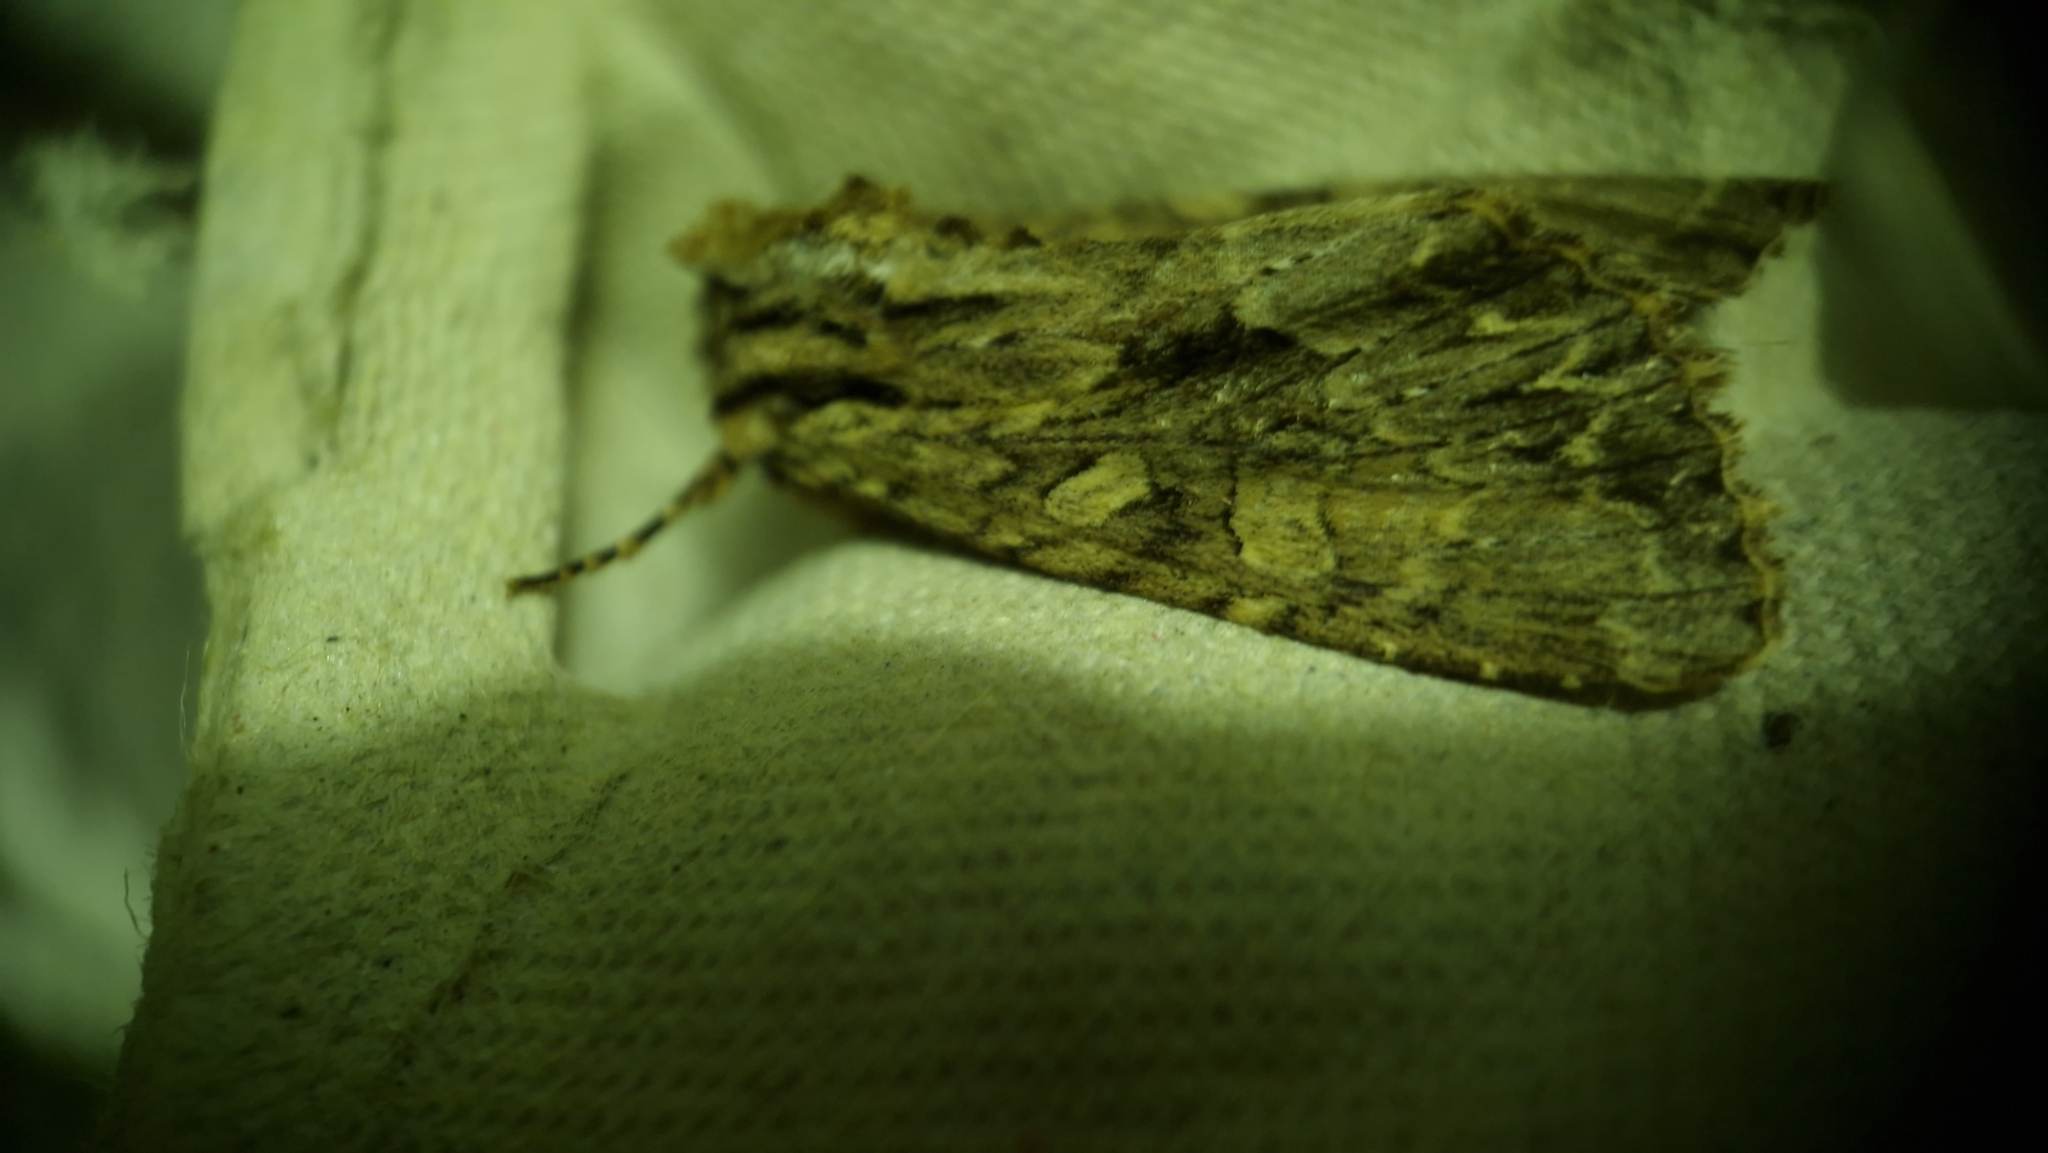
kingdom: Animalia
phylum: Arthropoda
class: Insecta
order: Lepidoptera
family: Noctuidae
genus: Apamea
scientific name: Apamea monoglypha
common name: Dark arches
